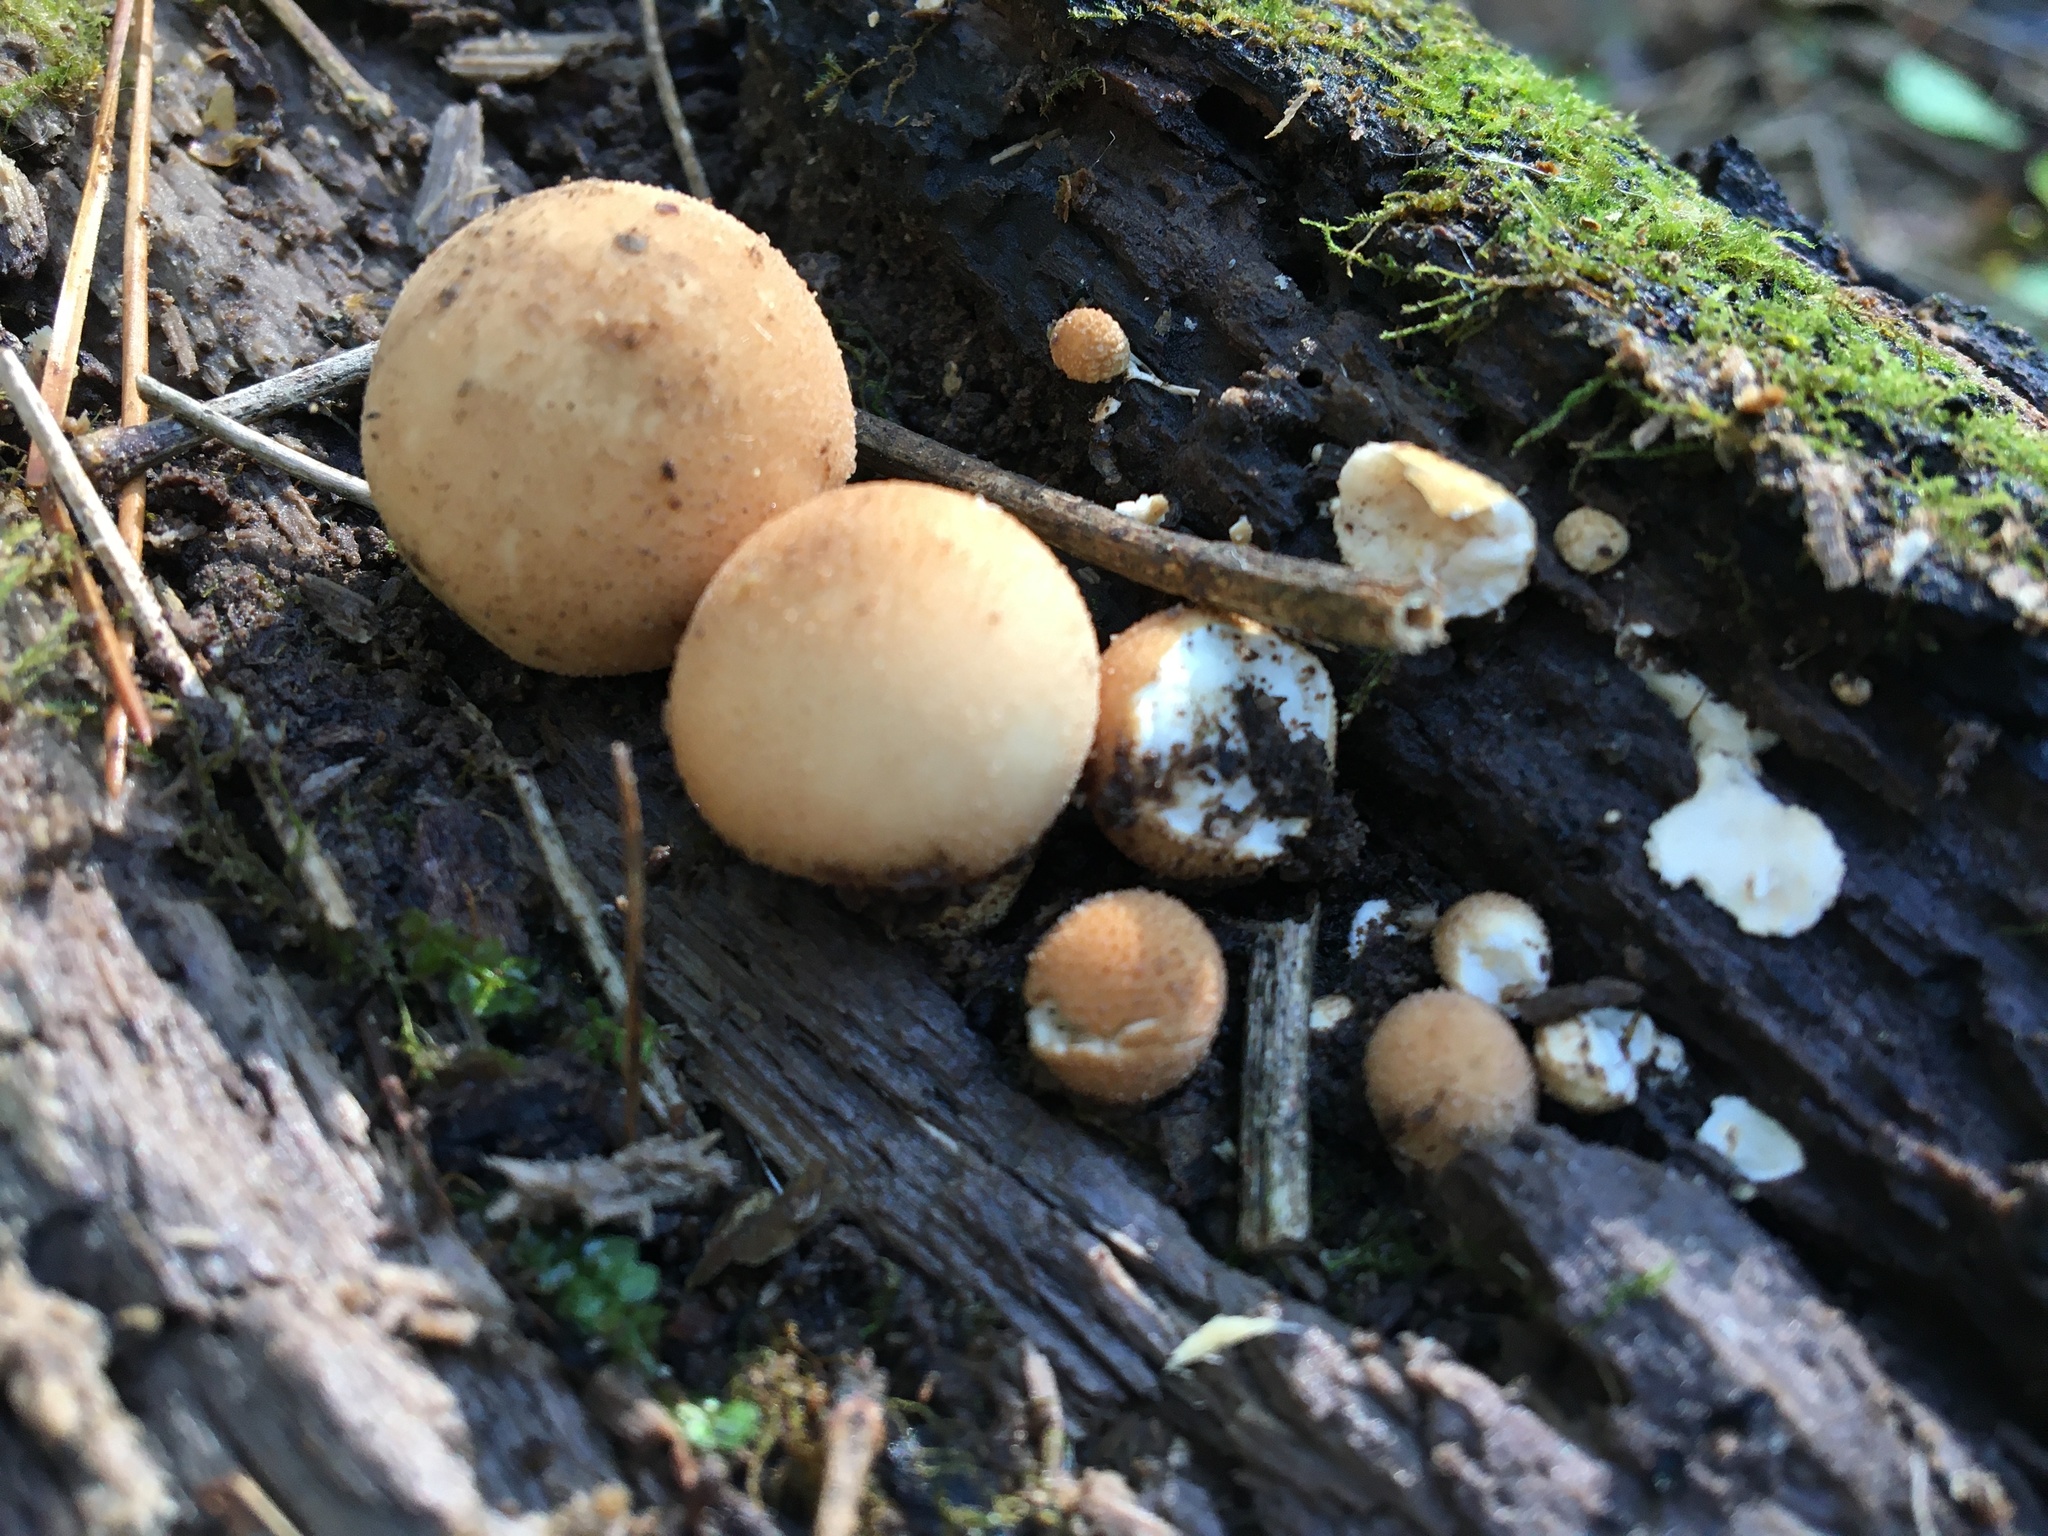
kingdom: Fungi
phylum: Basidiomycota
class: Agaricomycetes
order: Agaricales
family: Lycoperdaceae
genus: Apioperdon
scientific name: Apioperdon pyriforme
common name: Pear-shaped puffball
